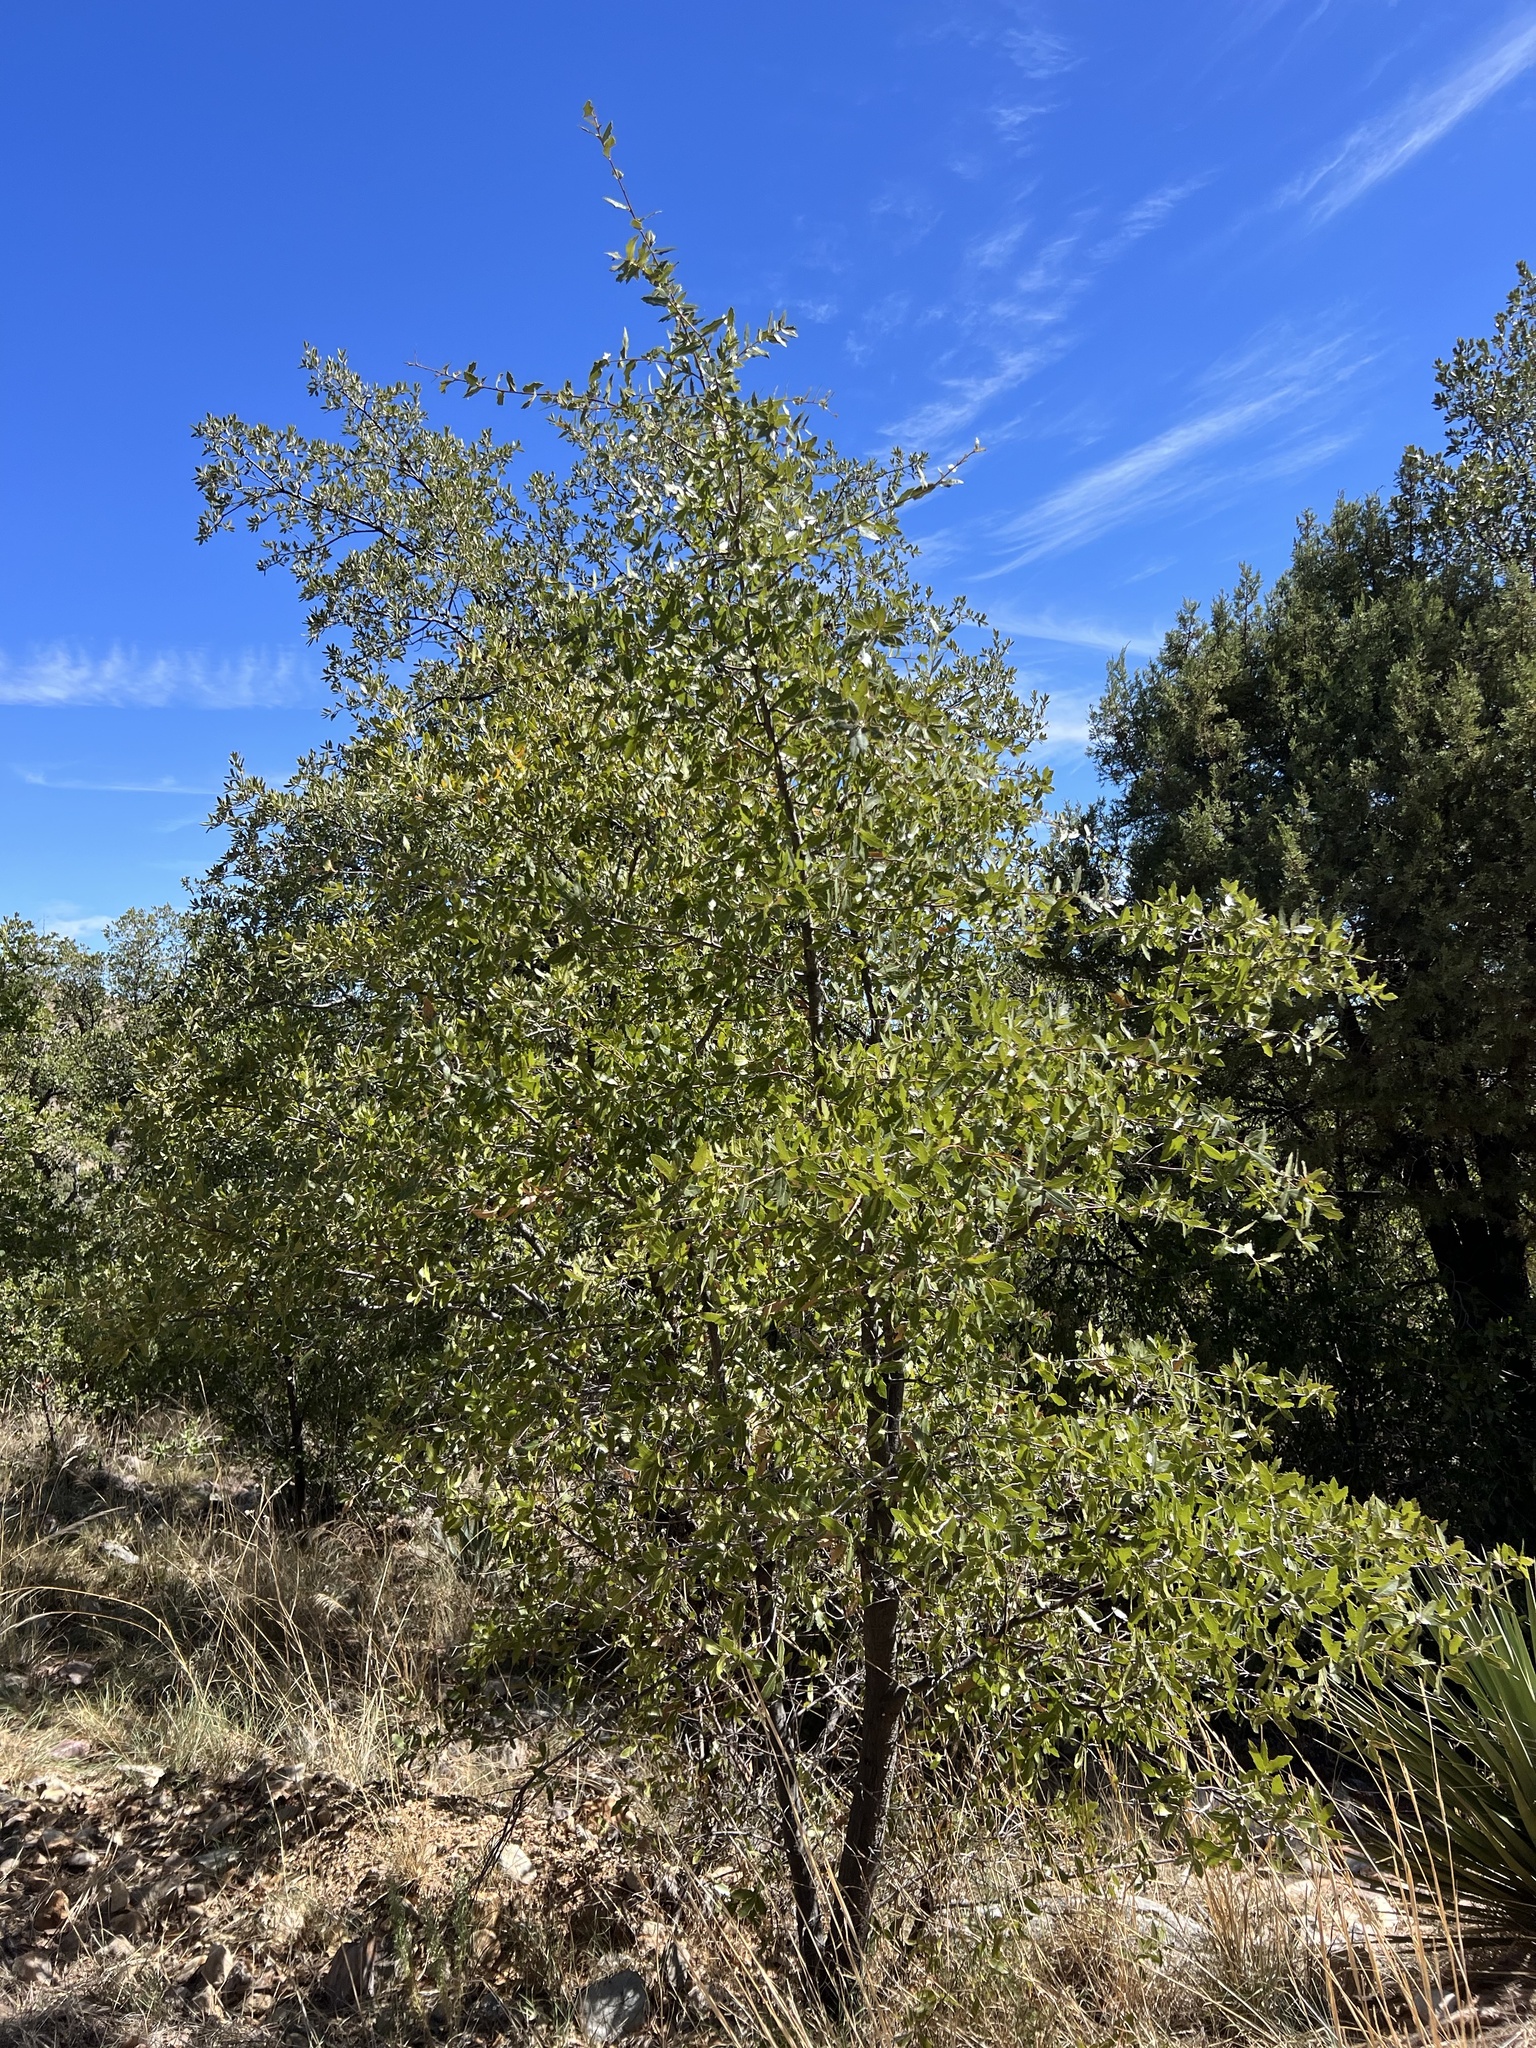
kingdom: Plantae
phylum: Tracheophyta
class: Magnoliopsida
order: Fagales
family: Fagaceae
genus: Quercus
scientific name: Quercus emoryi
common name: Emory oak
